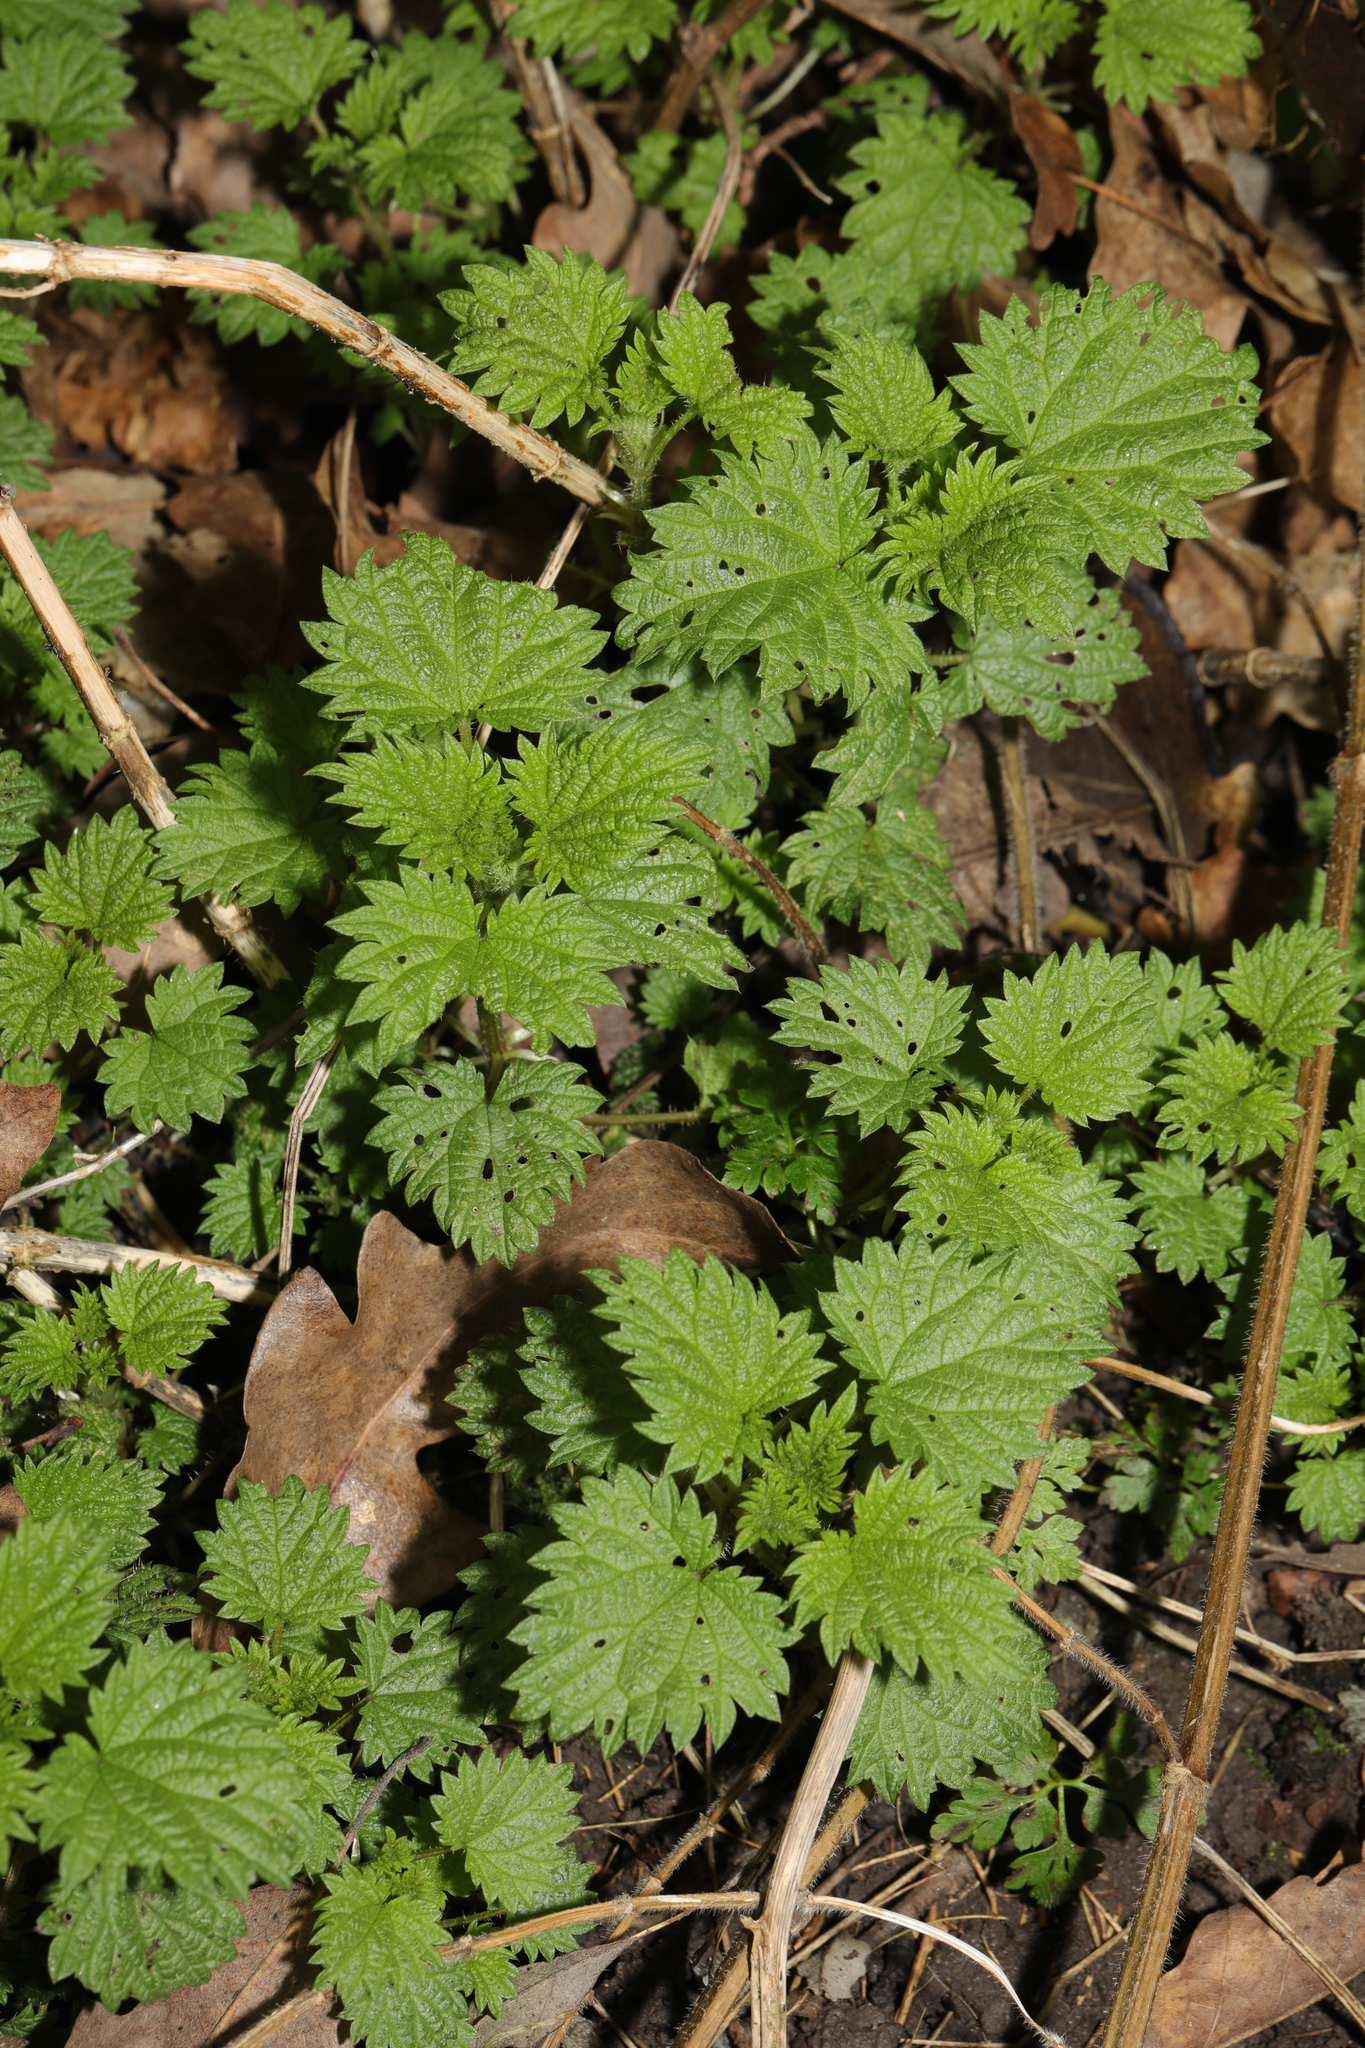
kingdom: Plantae
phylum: Tracheophyta
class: Magnoliopsida
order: Rosales
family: Urticaceae
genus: Urtica
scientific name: Urtica dioica
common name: Common nettle
